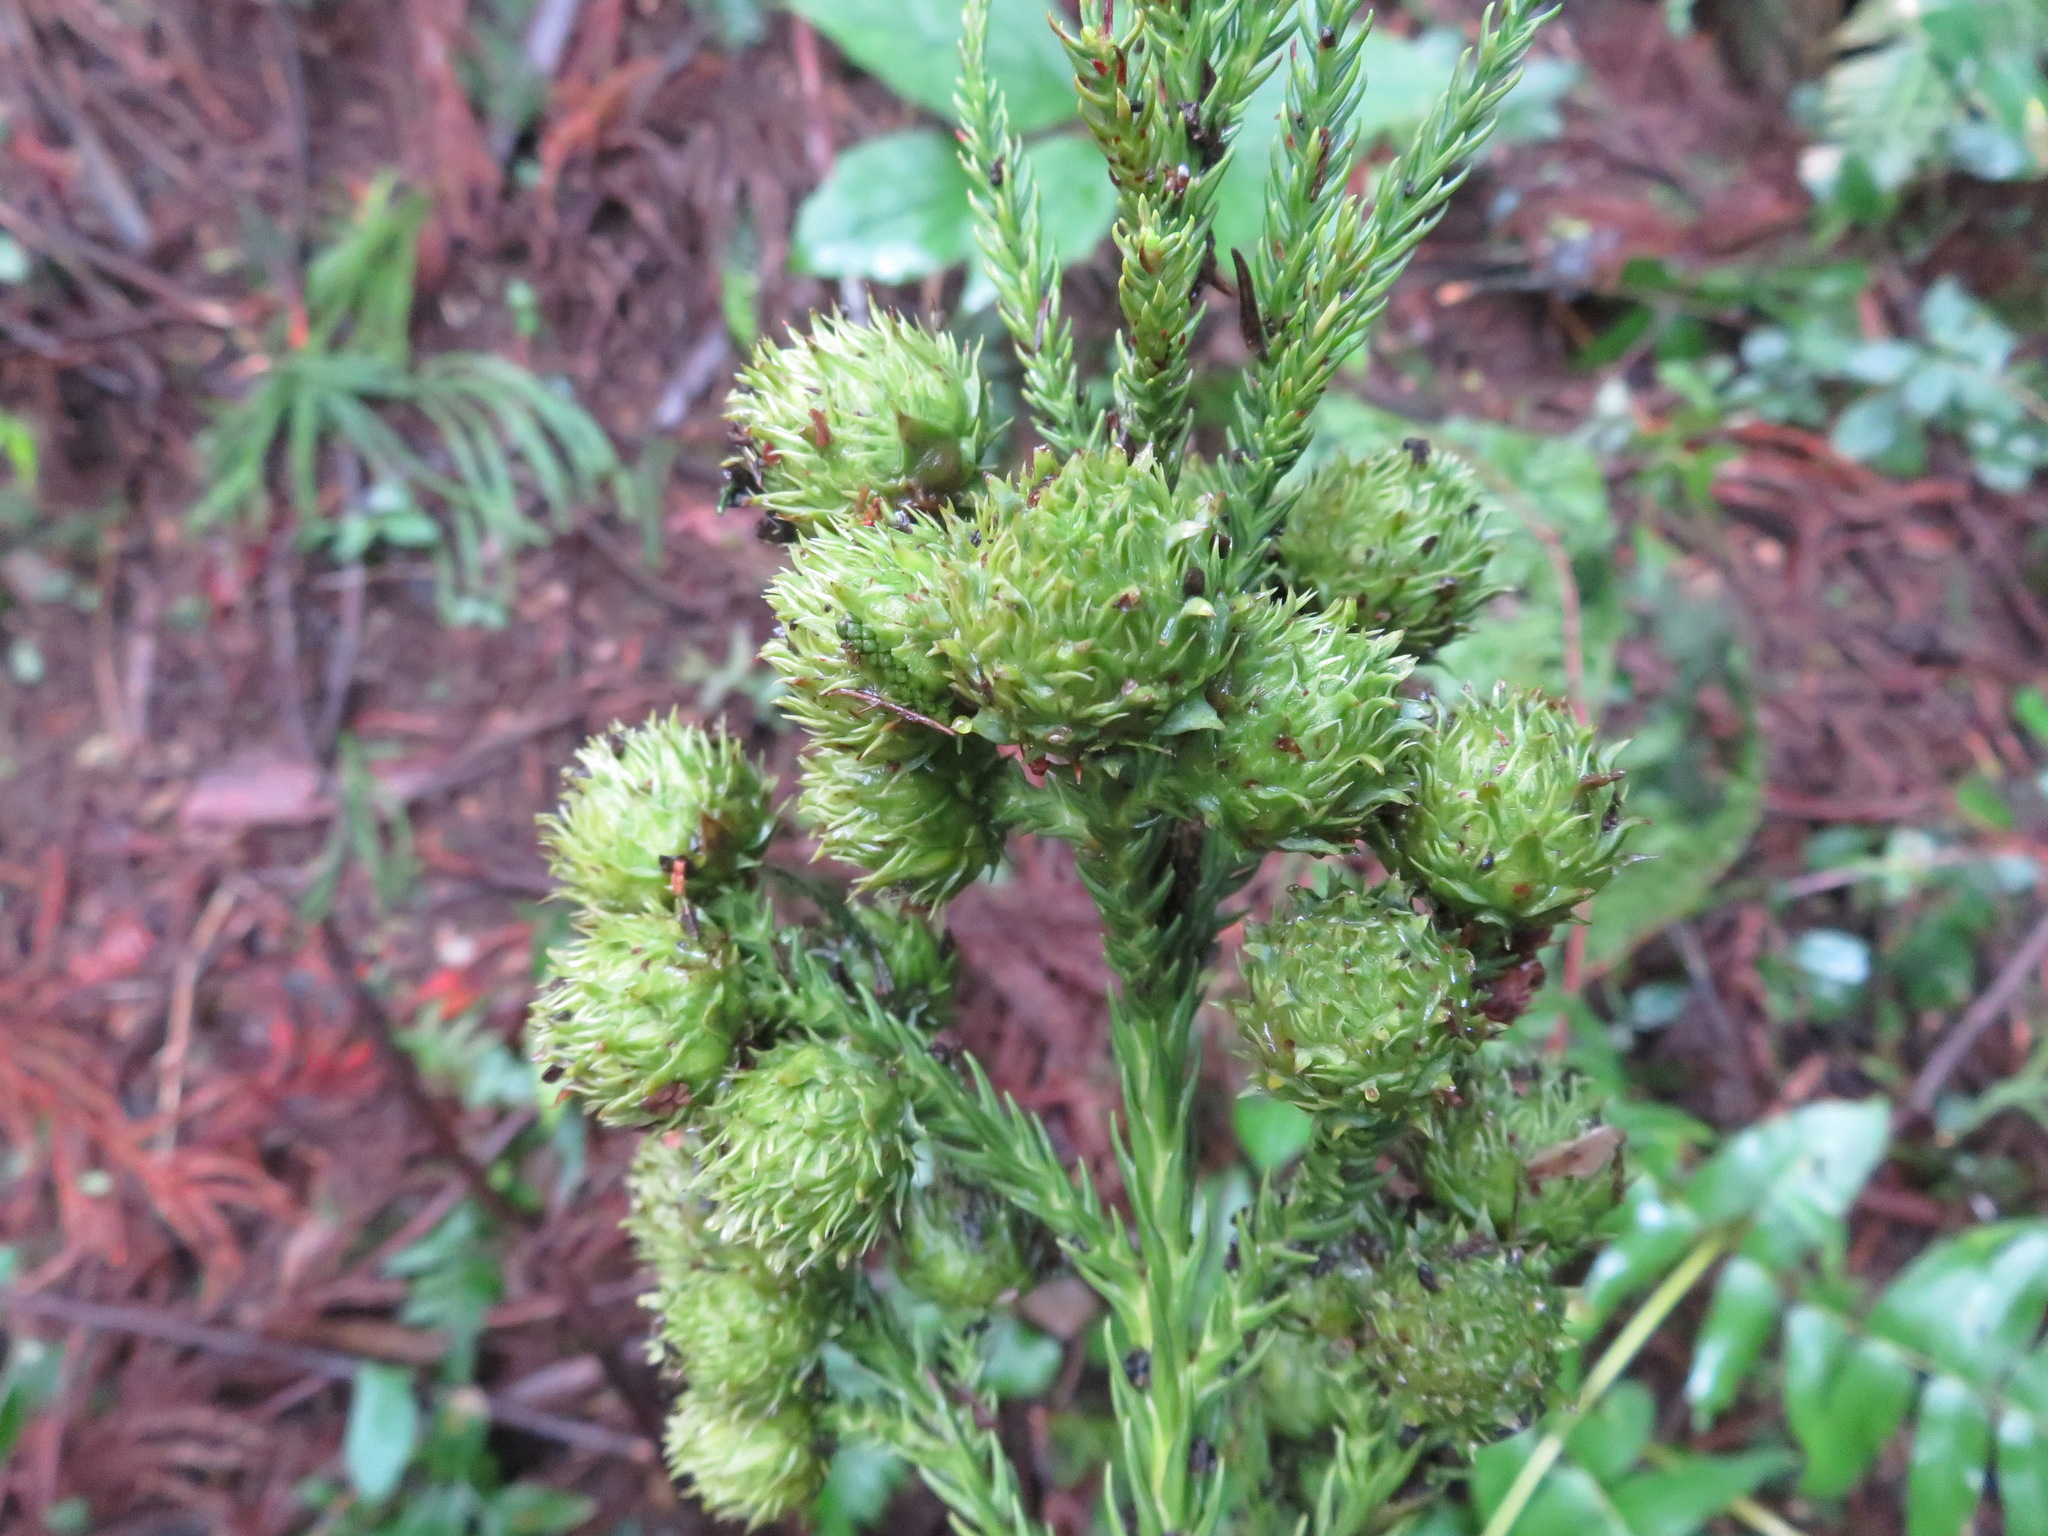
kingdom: Plantae
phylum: Tracheophyta
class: Pinopsida
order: Pinales
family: Cupressaceae
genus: Cryptomeria
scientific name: Cryptomeria japonica
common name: Japanese cedar
